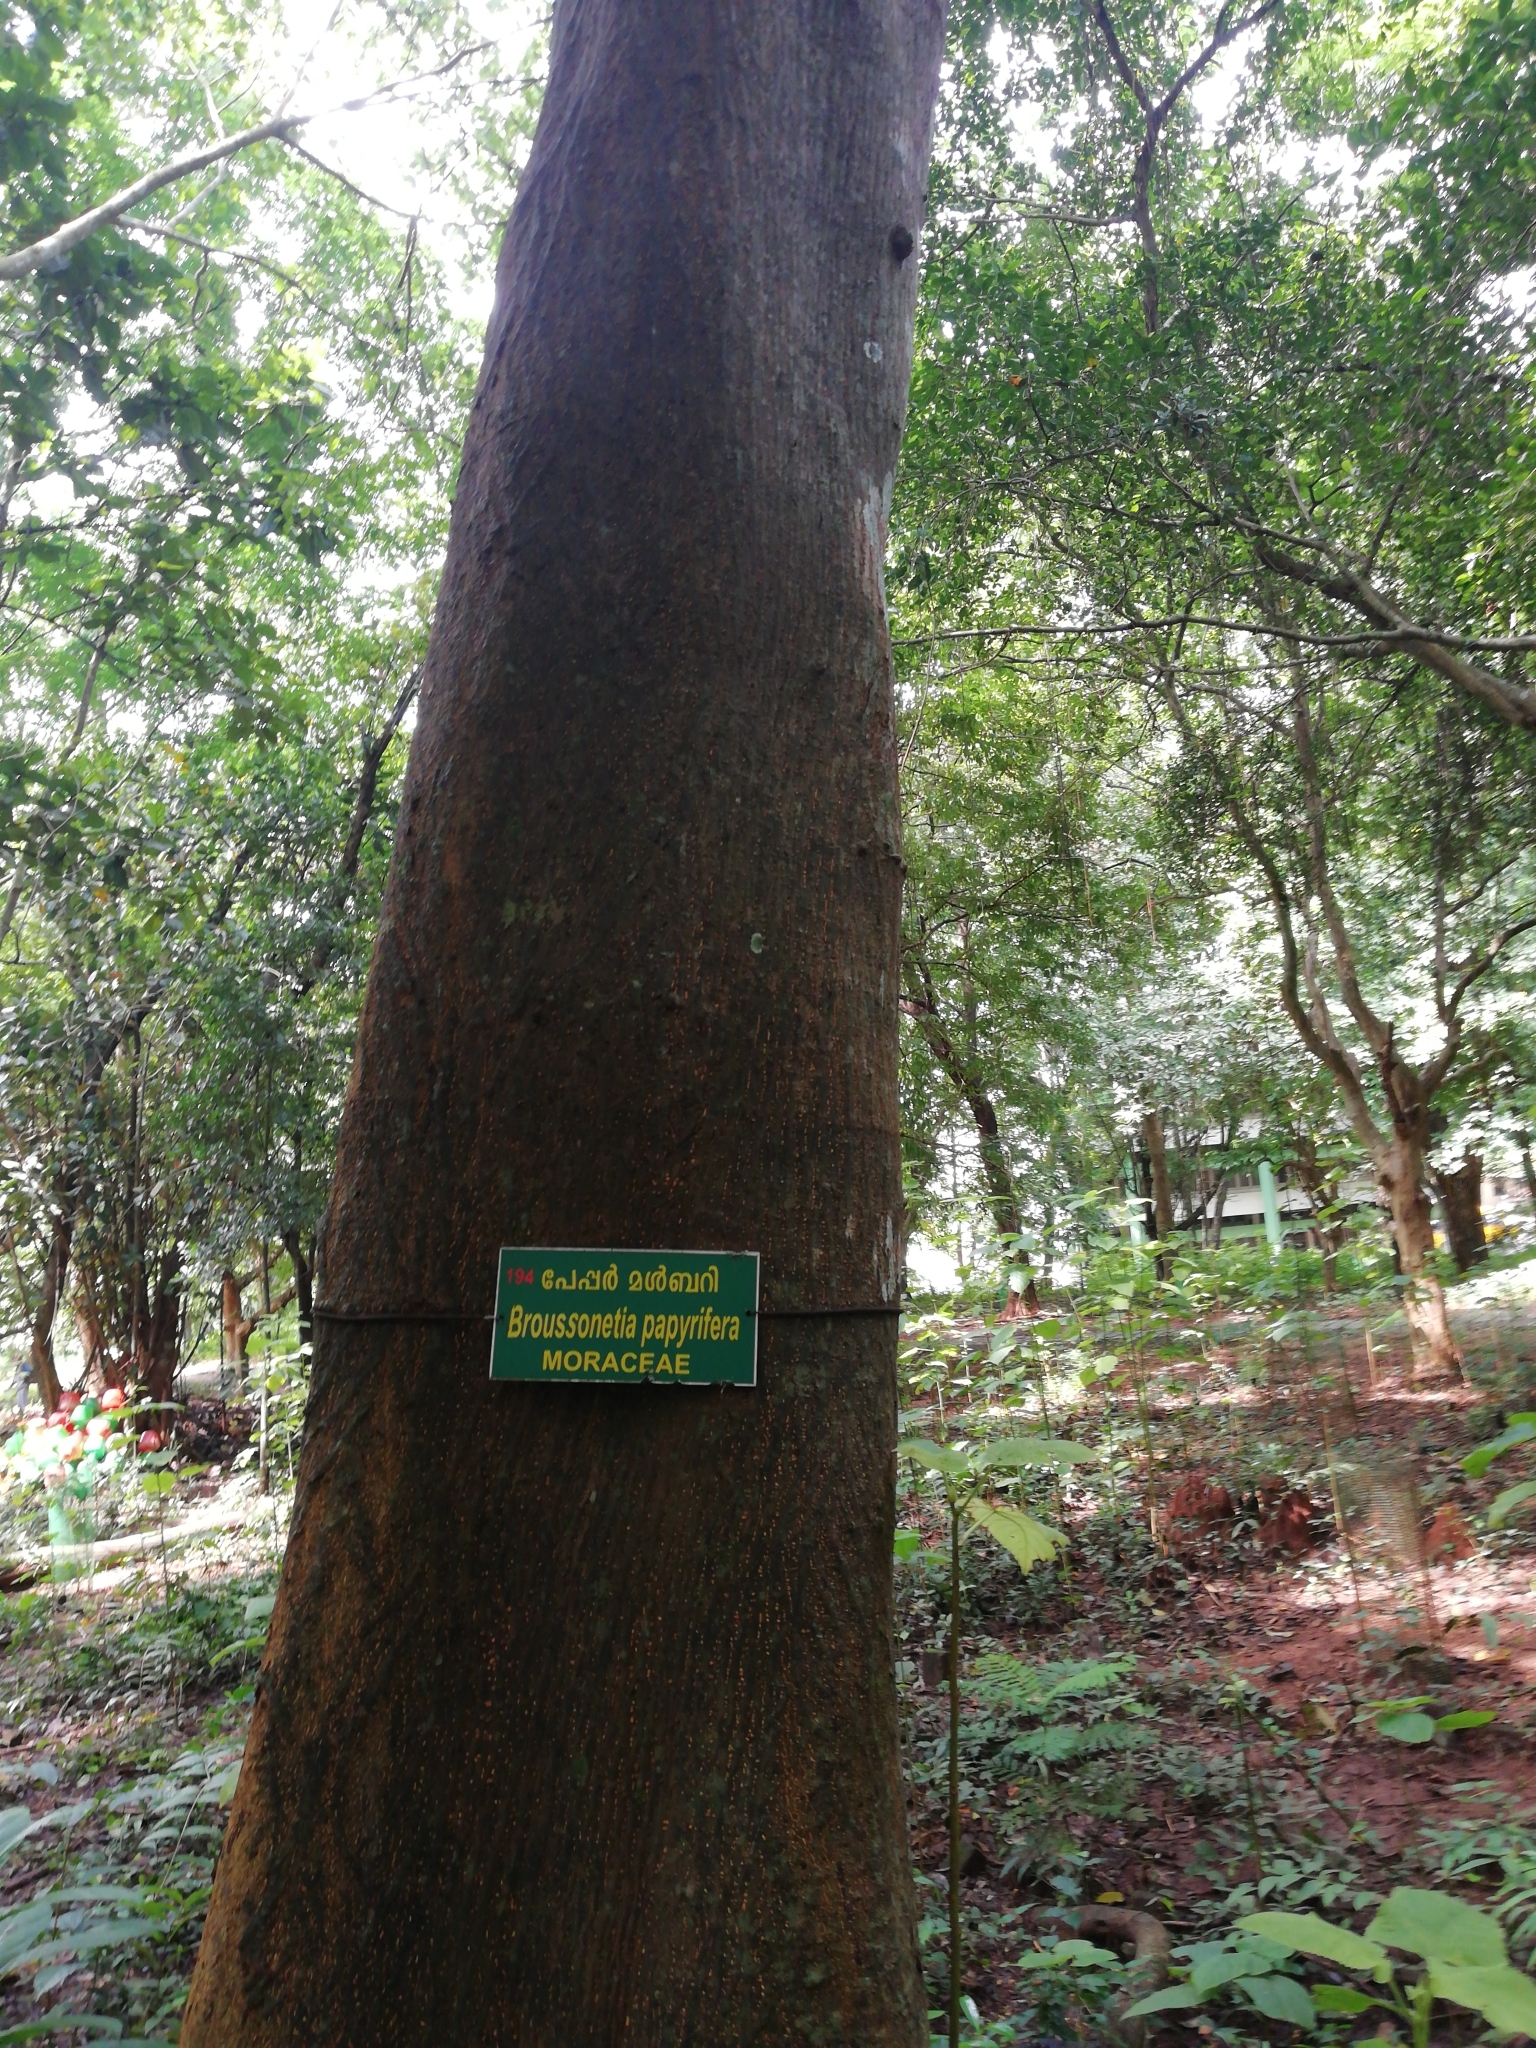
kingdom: Plantae
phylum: Tracheophyta
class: Magnoliopsida
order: Rosales
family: Moraceae
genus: Broussonetia
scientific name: Broussonetia papyrifera
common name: Paper mulberry
